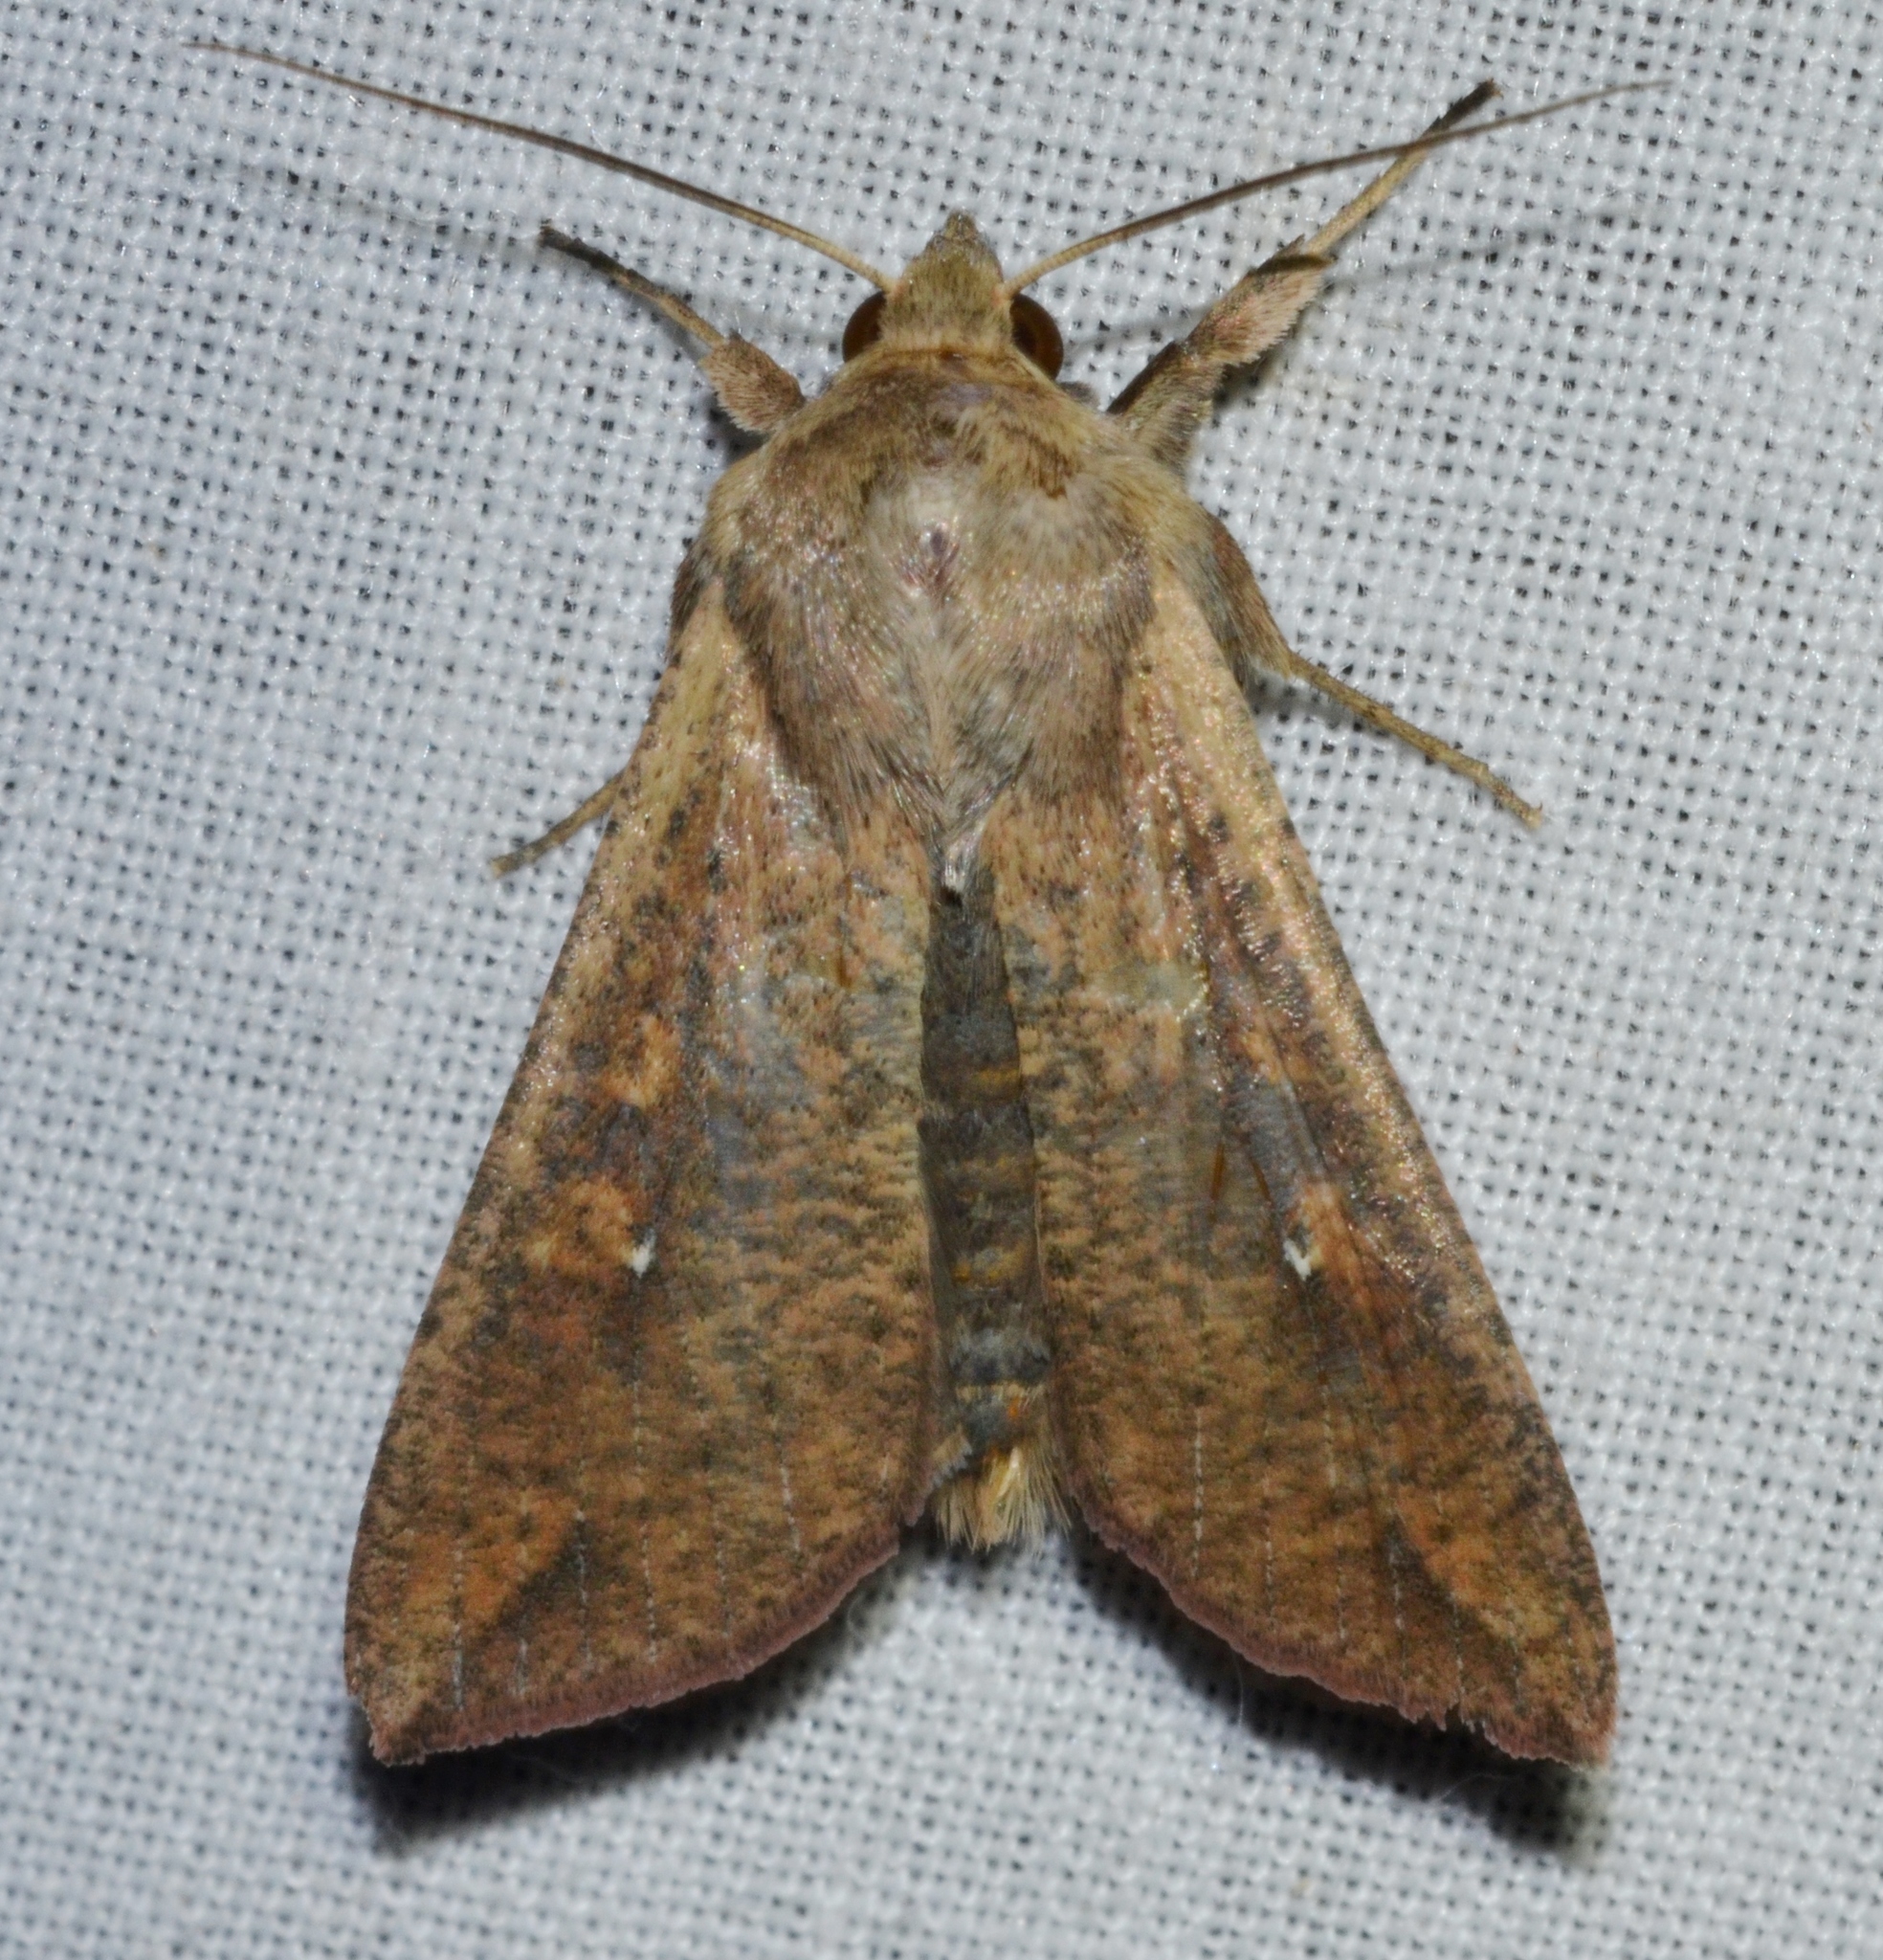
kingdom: Animalia
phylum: Arthropoda
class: Insecta
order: Lepidoptera
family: Noctuidae
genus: Mythimna
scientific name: Mythimna unipuncta
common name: White-speck
